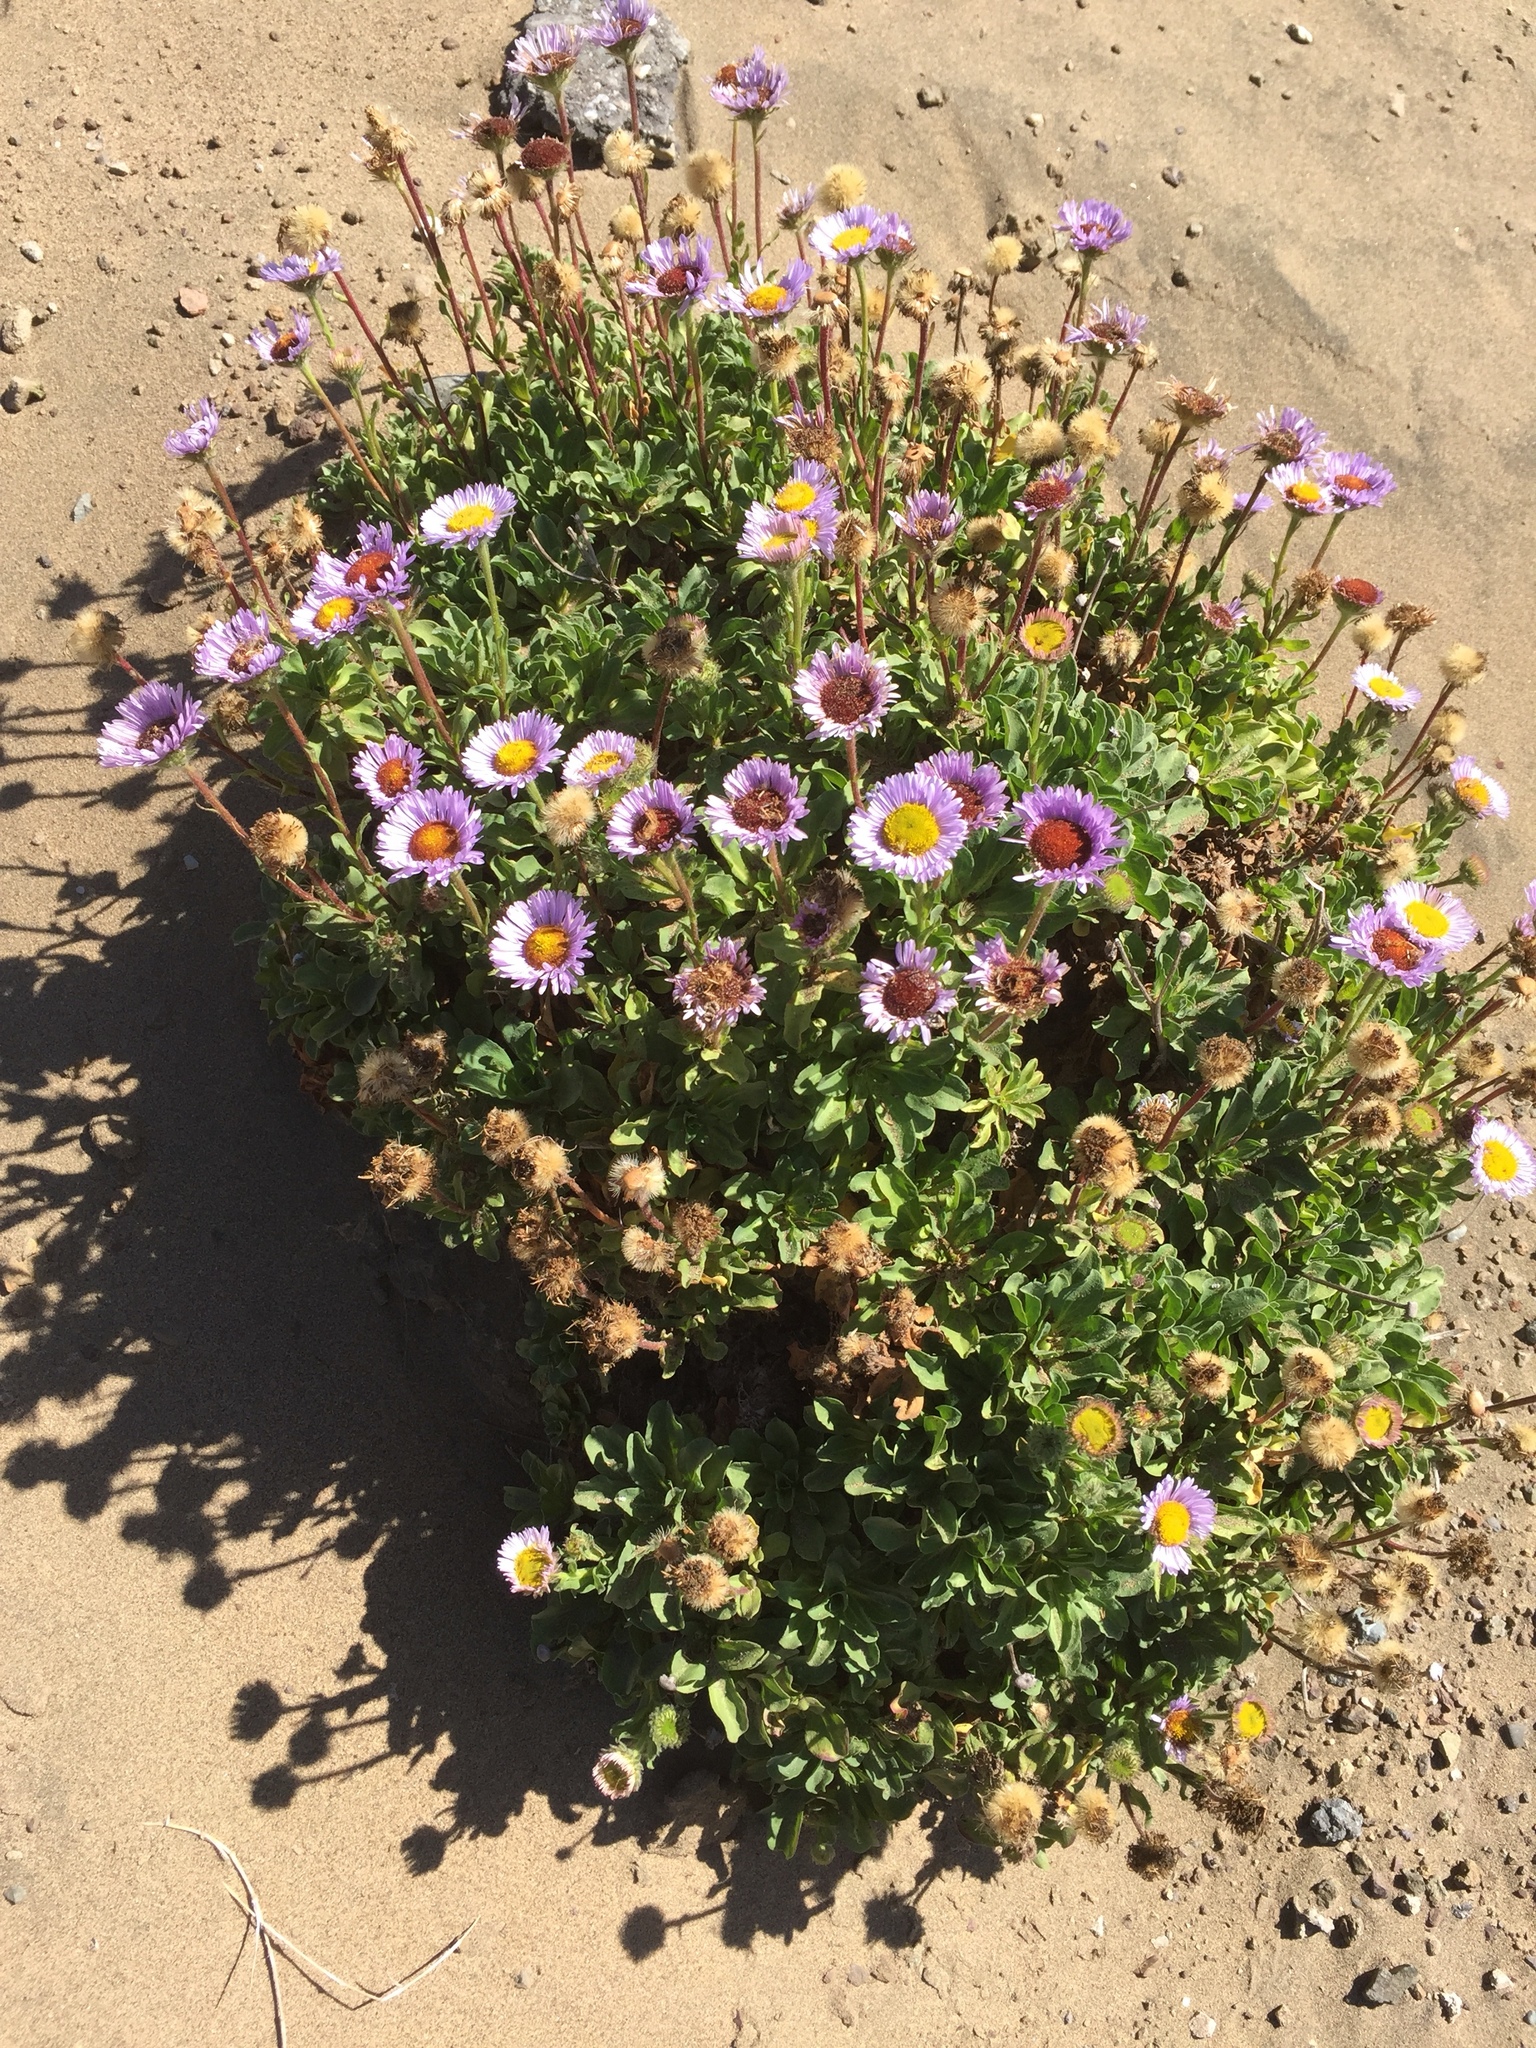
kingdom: Plantae
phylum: Tracheophyta
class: Magnoliopsida
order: Asterales
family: Asteraceae
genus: Erigeron
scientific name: Erigeron glaucus
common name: Seaside daisy
